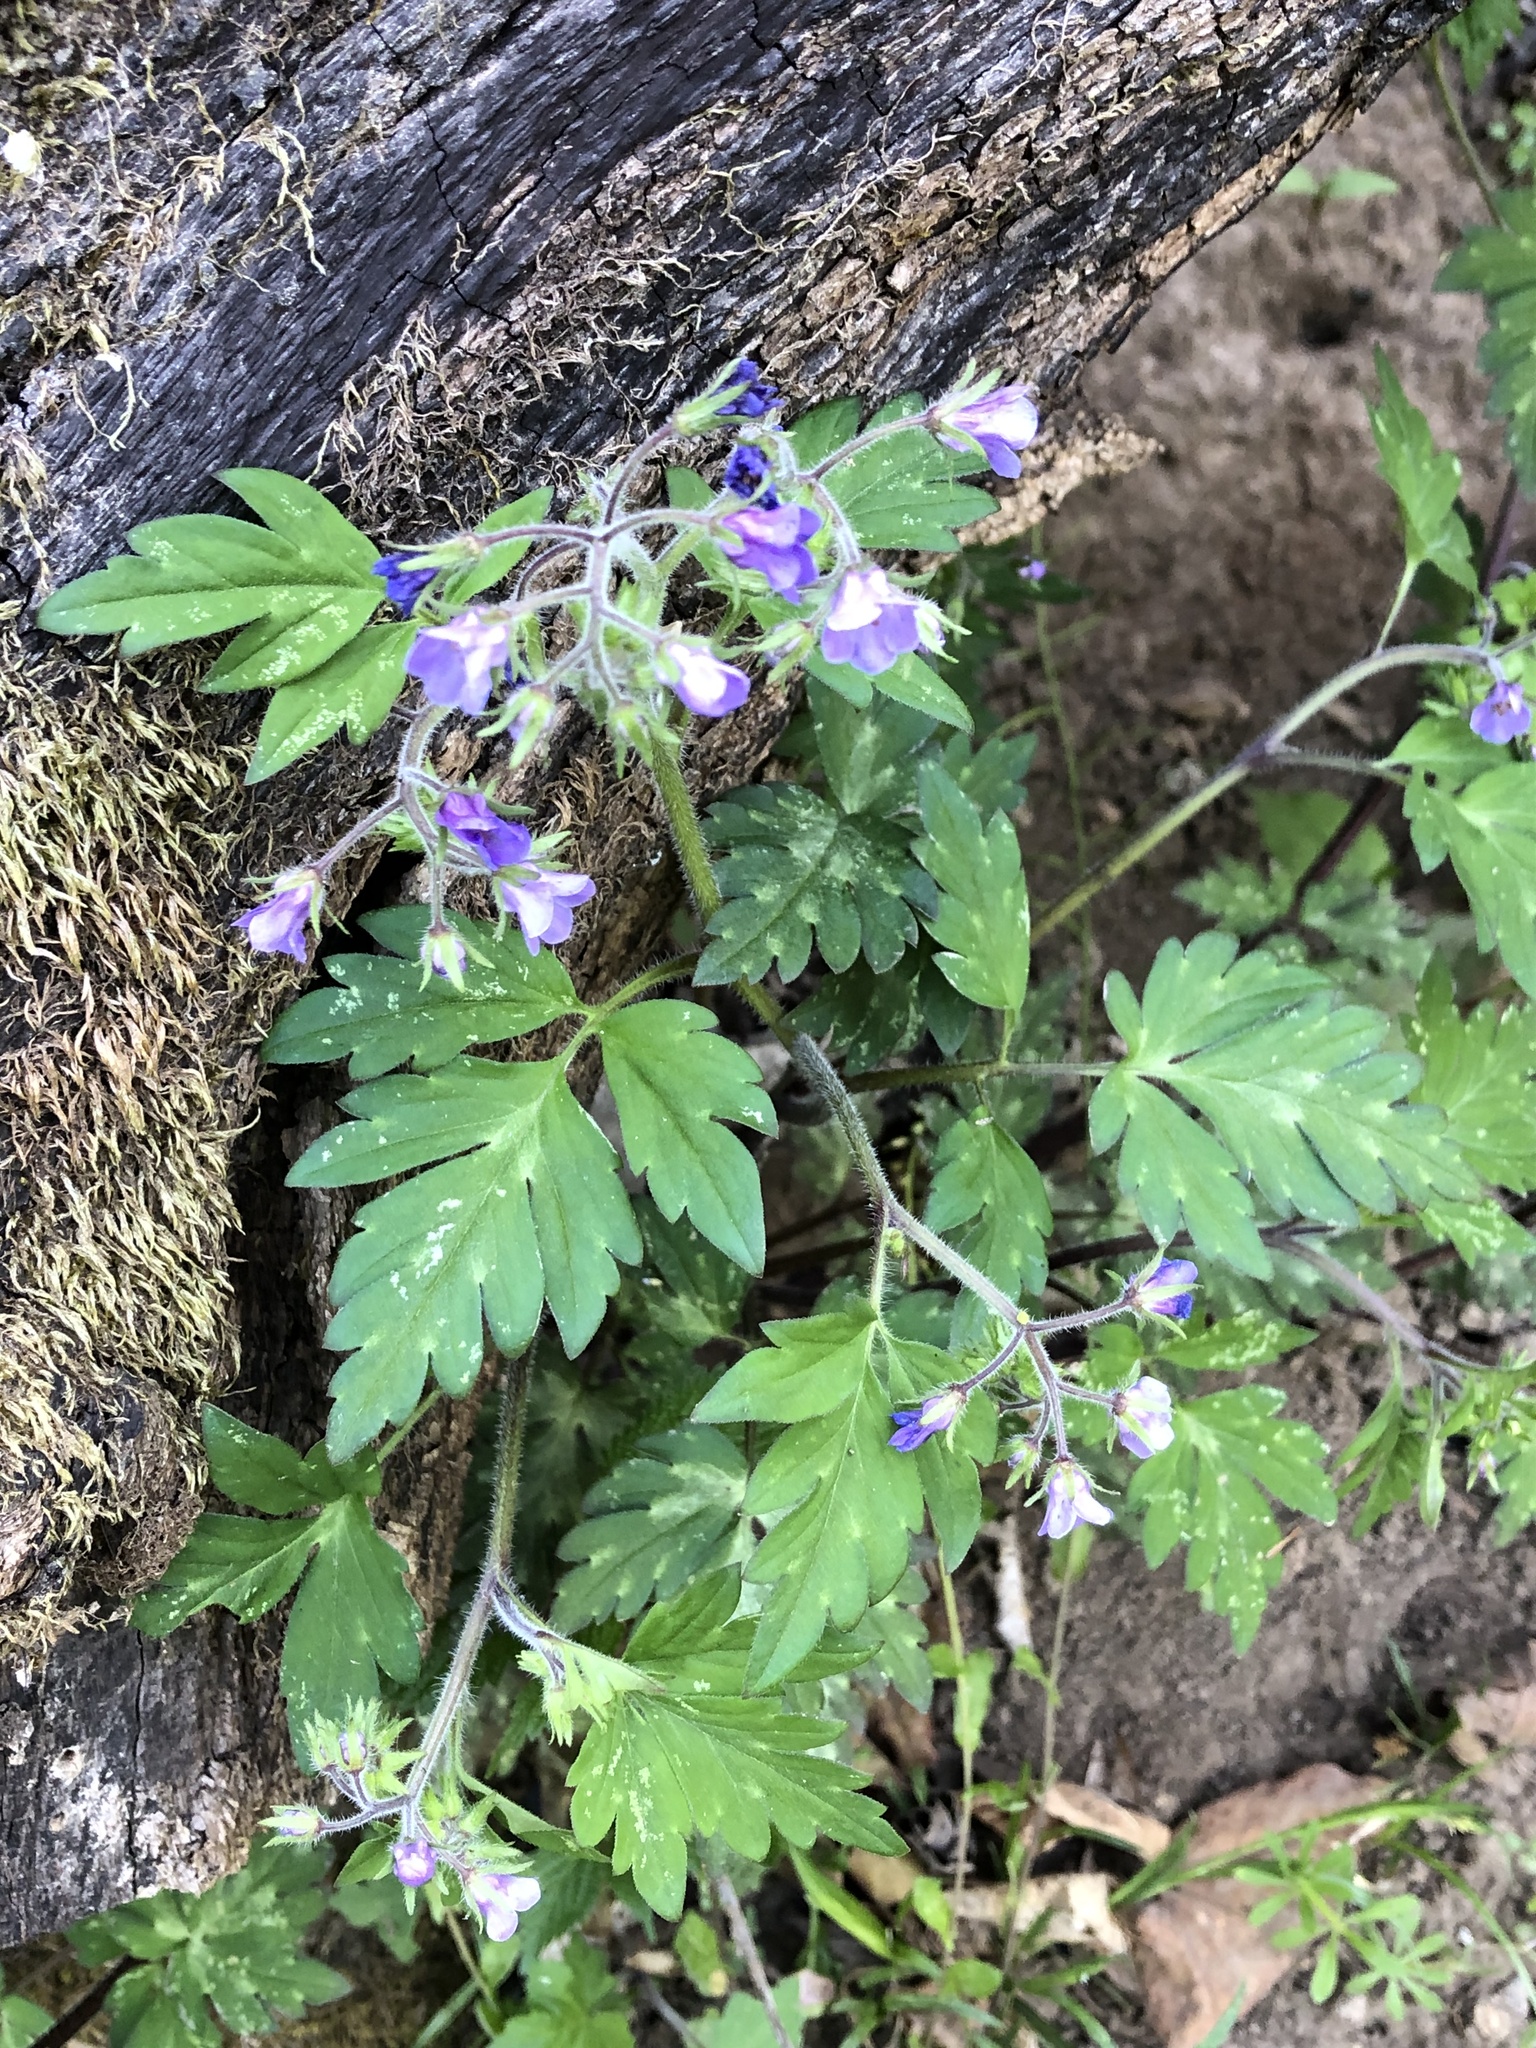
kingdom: Plantae
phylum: Tracheophyta
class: Magnoliopsida
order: Boraginales
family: Hydrophyllaceae
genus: Phacelia
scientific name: Phacelia bipinnatifida
